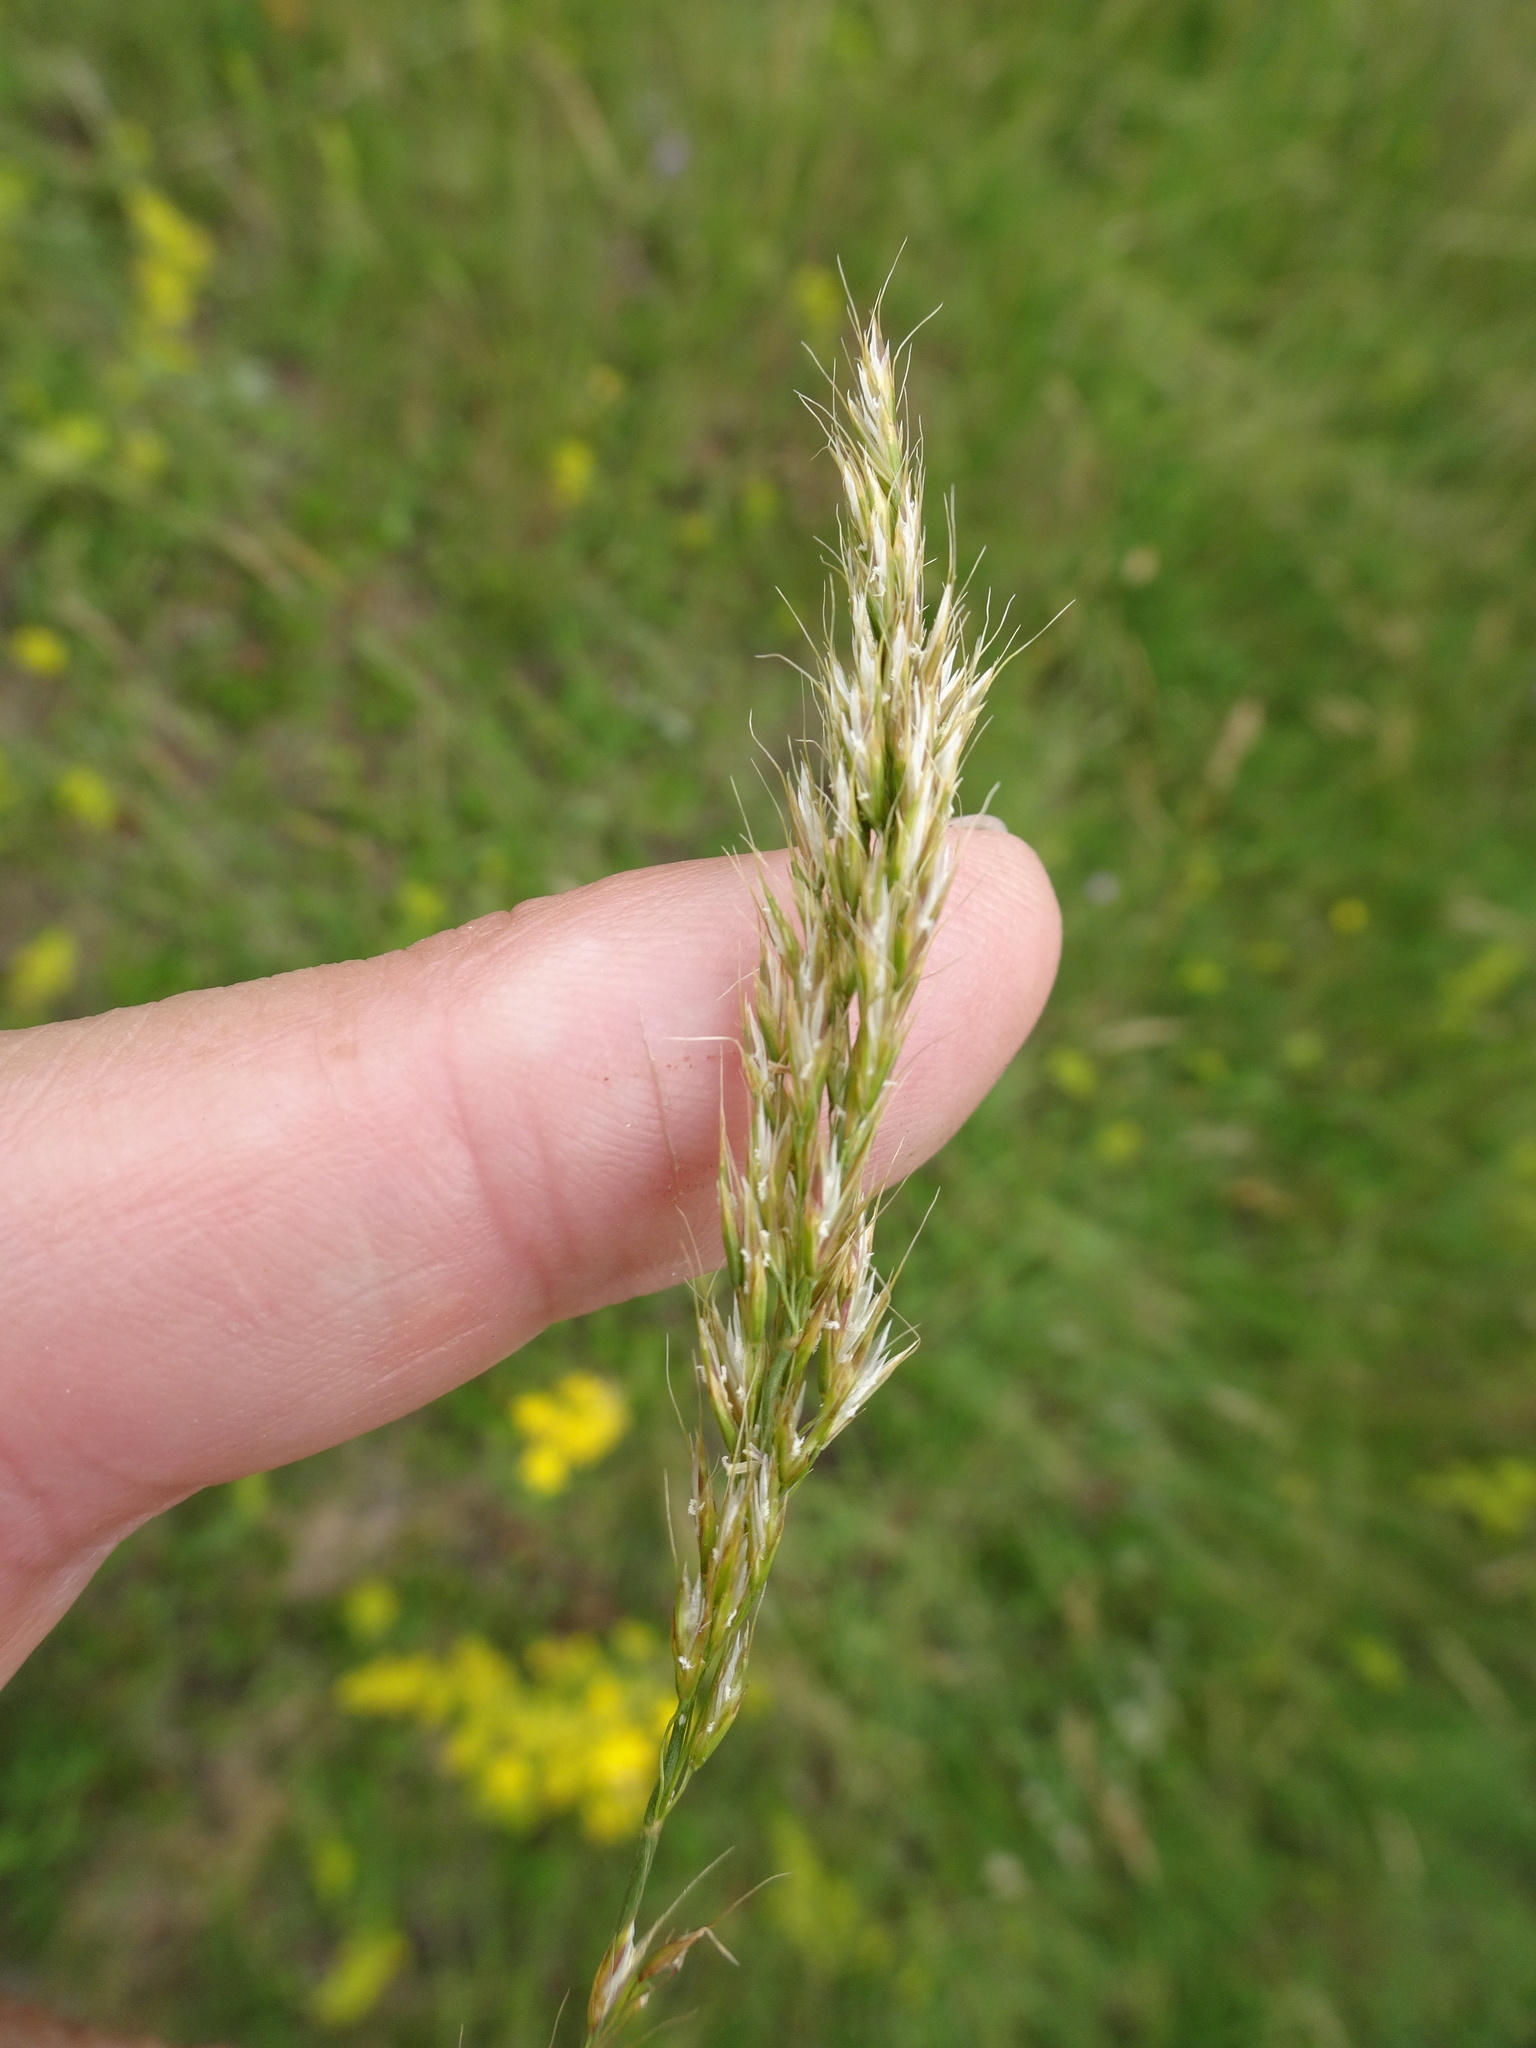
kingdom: Plantae
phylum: Tracheophyta
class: Liliopsida
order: Poales
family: Poaceae
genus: Avenula
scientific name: Avenula pubescens
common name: Downy alpine oatgrass
